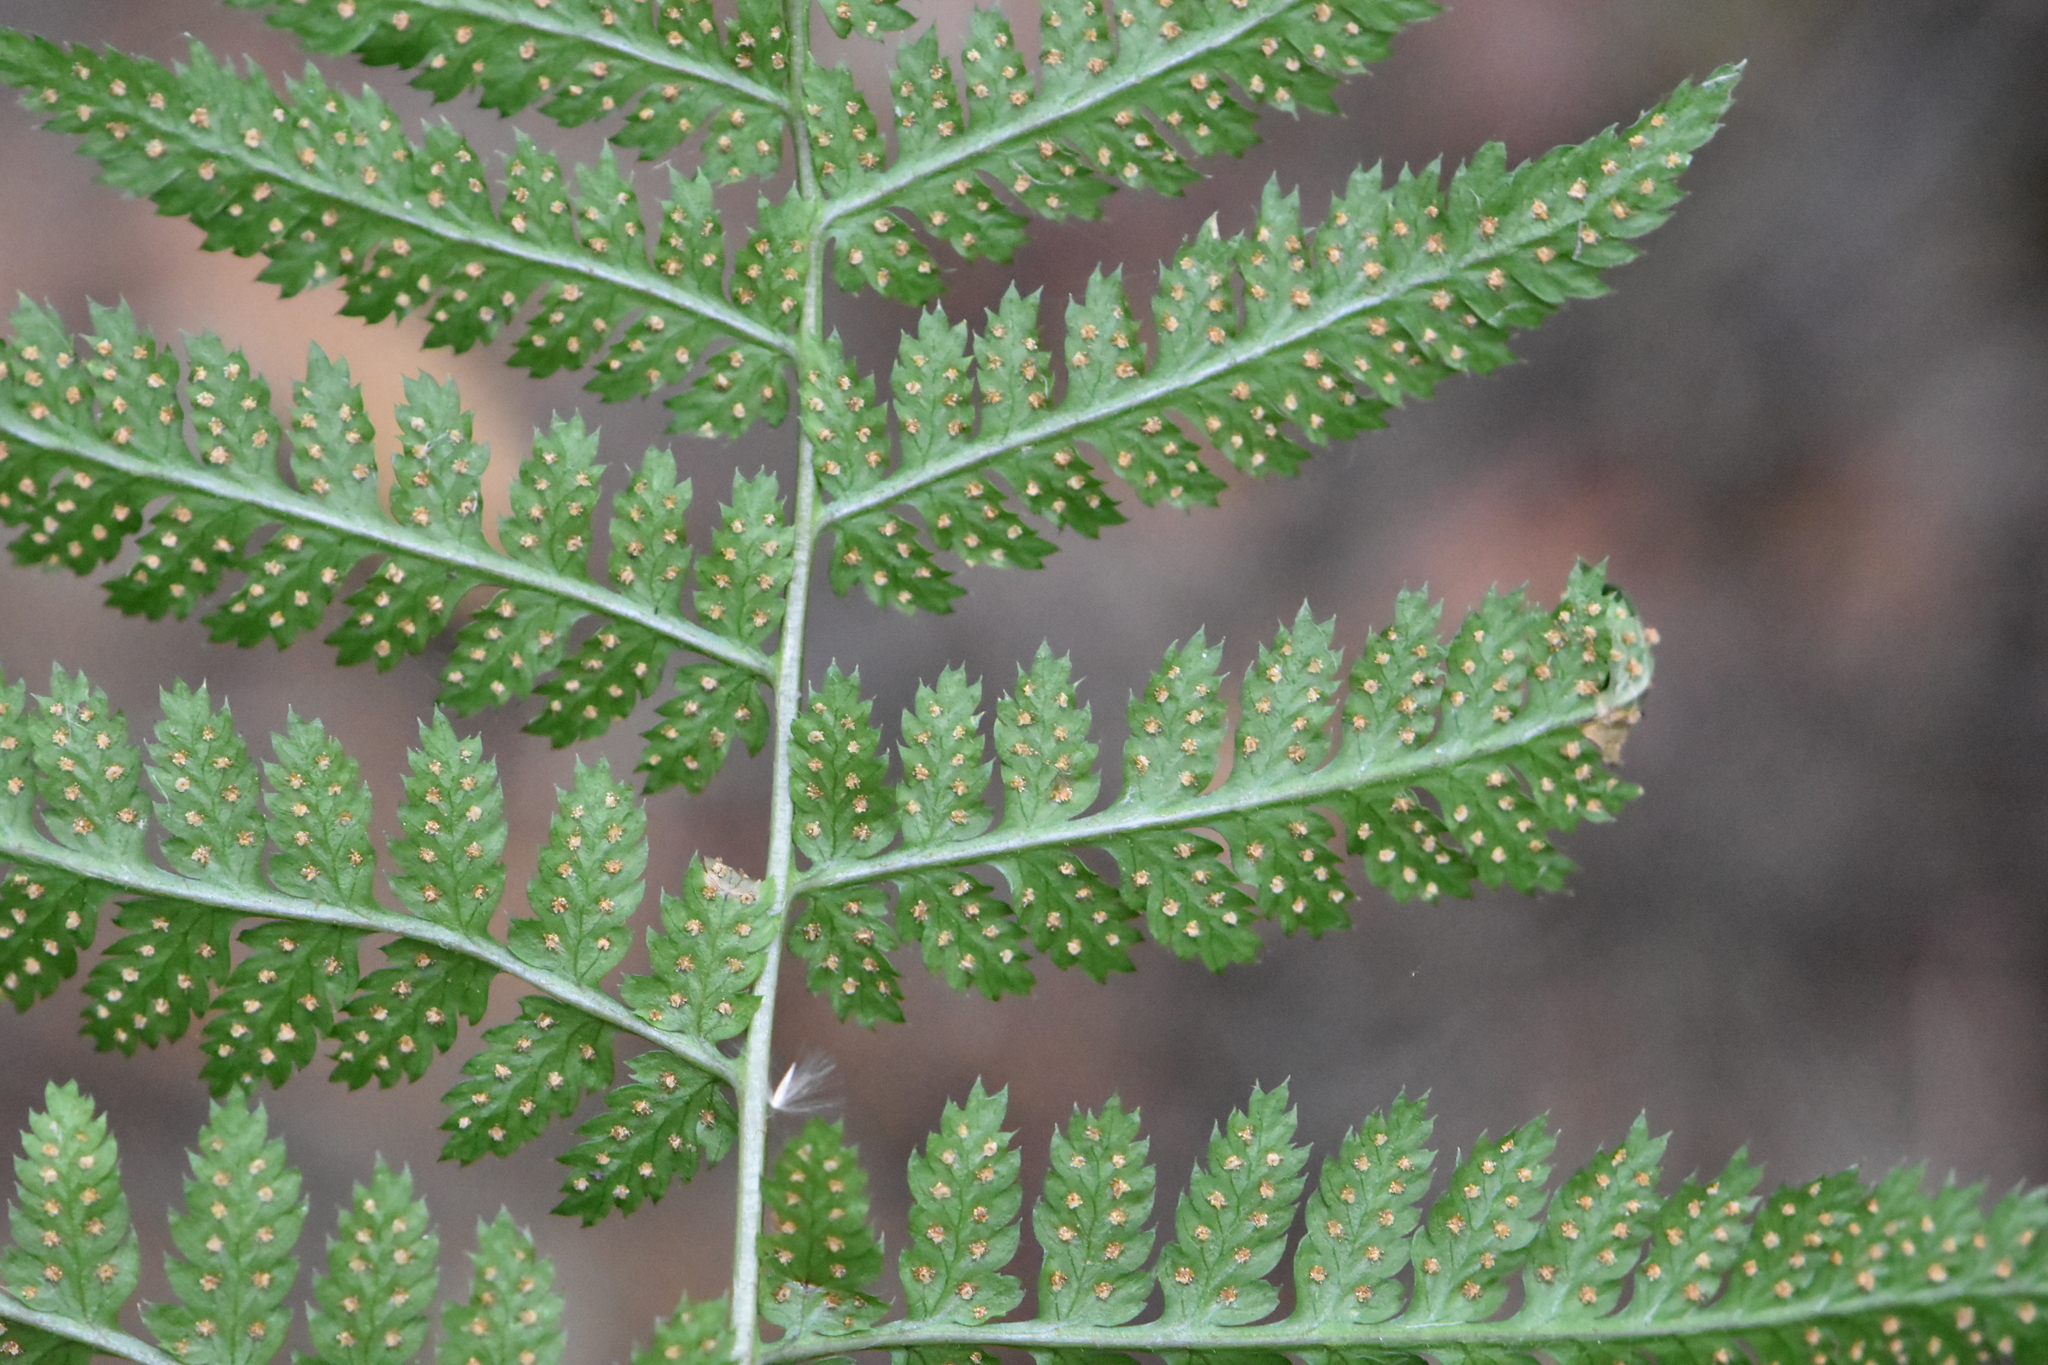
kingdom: Plantae
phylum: Tracheophyta
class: Polypodiopsida
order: Polypodiales
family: Dryopteridaceae
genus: Dryopteris
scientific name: Dryopteris carthusiana
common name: Narrow buckler-fern
